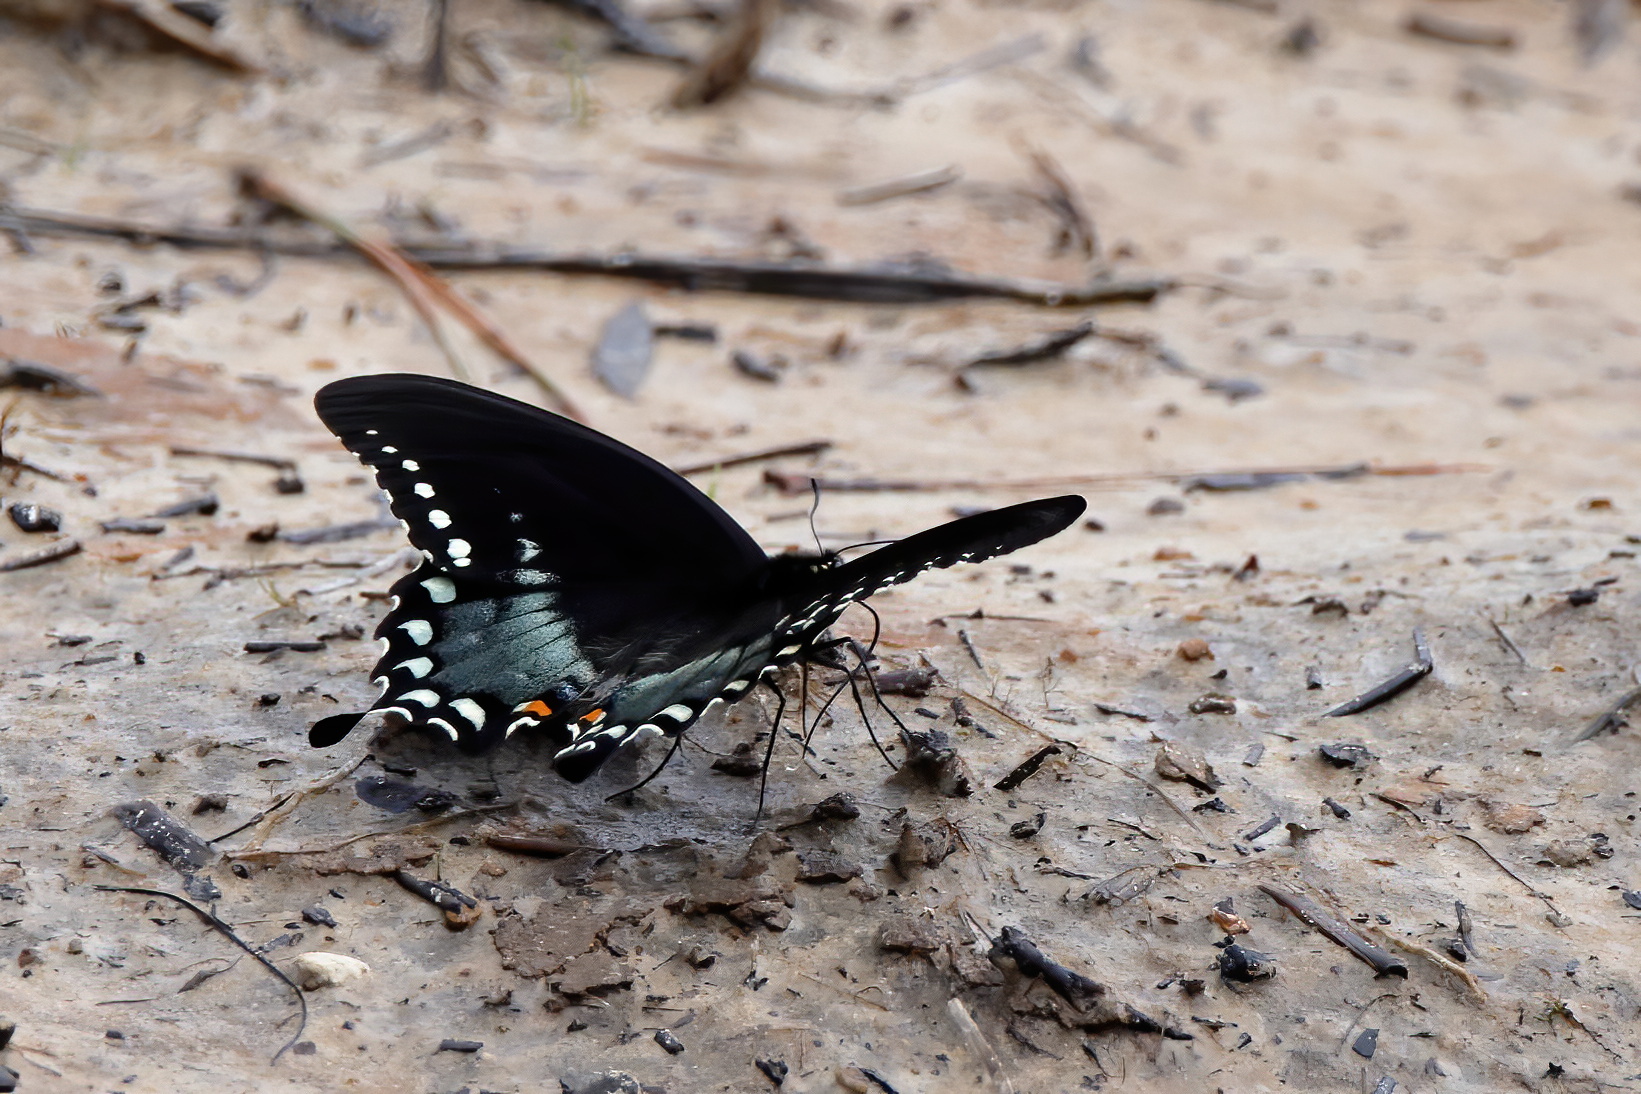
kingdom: Animalia
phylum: Arthropoda
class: Insecta
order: Lepidoptera
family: Papilionidae
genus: Papilio
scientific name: Papilio troilus
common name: Spicebush swallowtail
